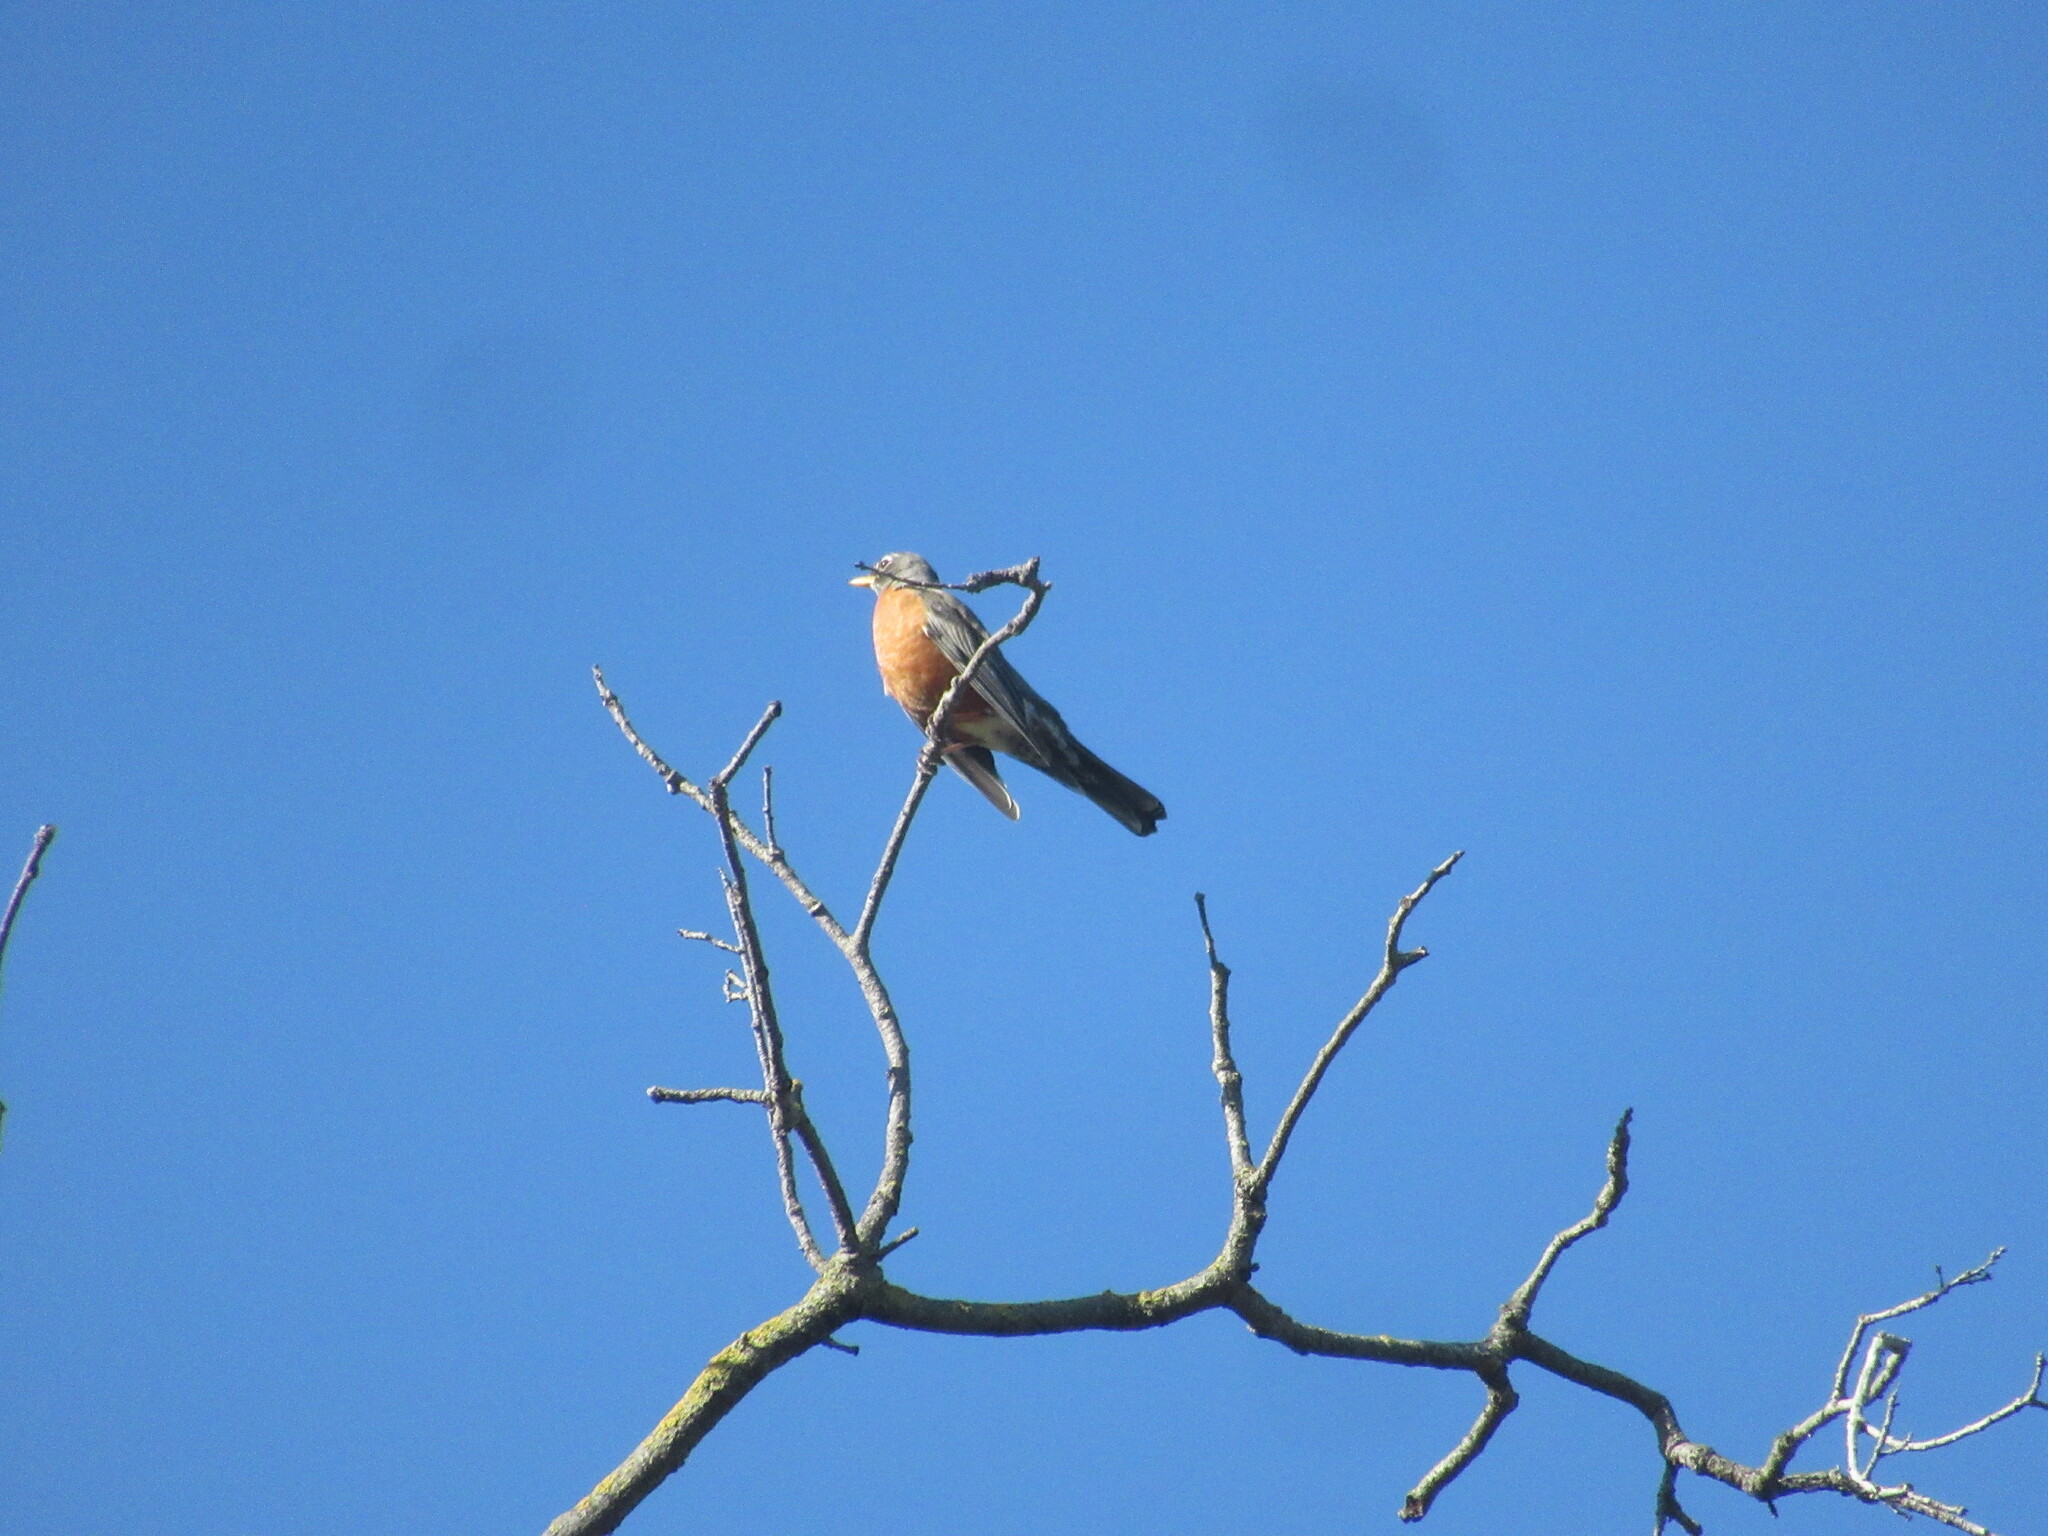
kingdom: Animalia
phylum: Chordata
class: Aves
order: Passeriformes
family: Turdidae
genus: Turdus
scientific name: Turdus migratorius
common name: American robin
